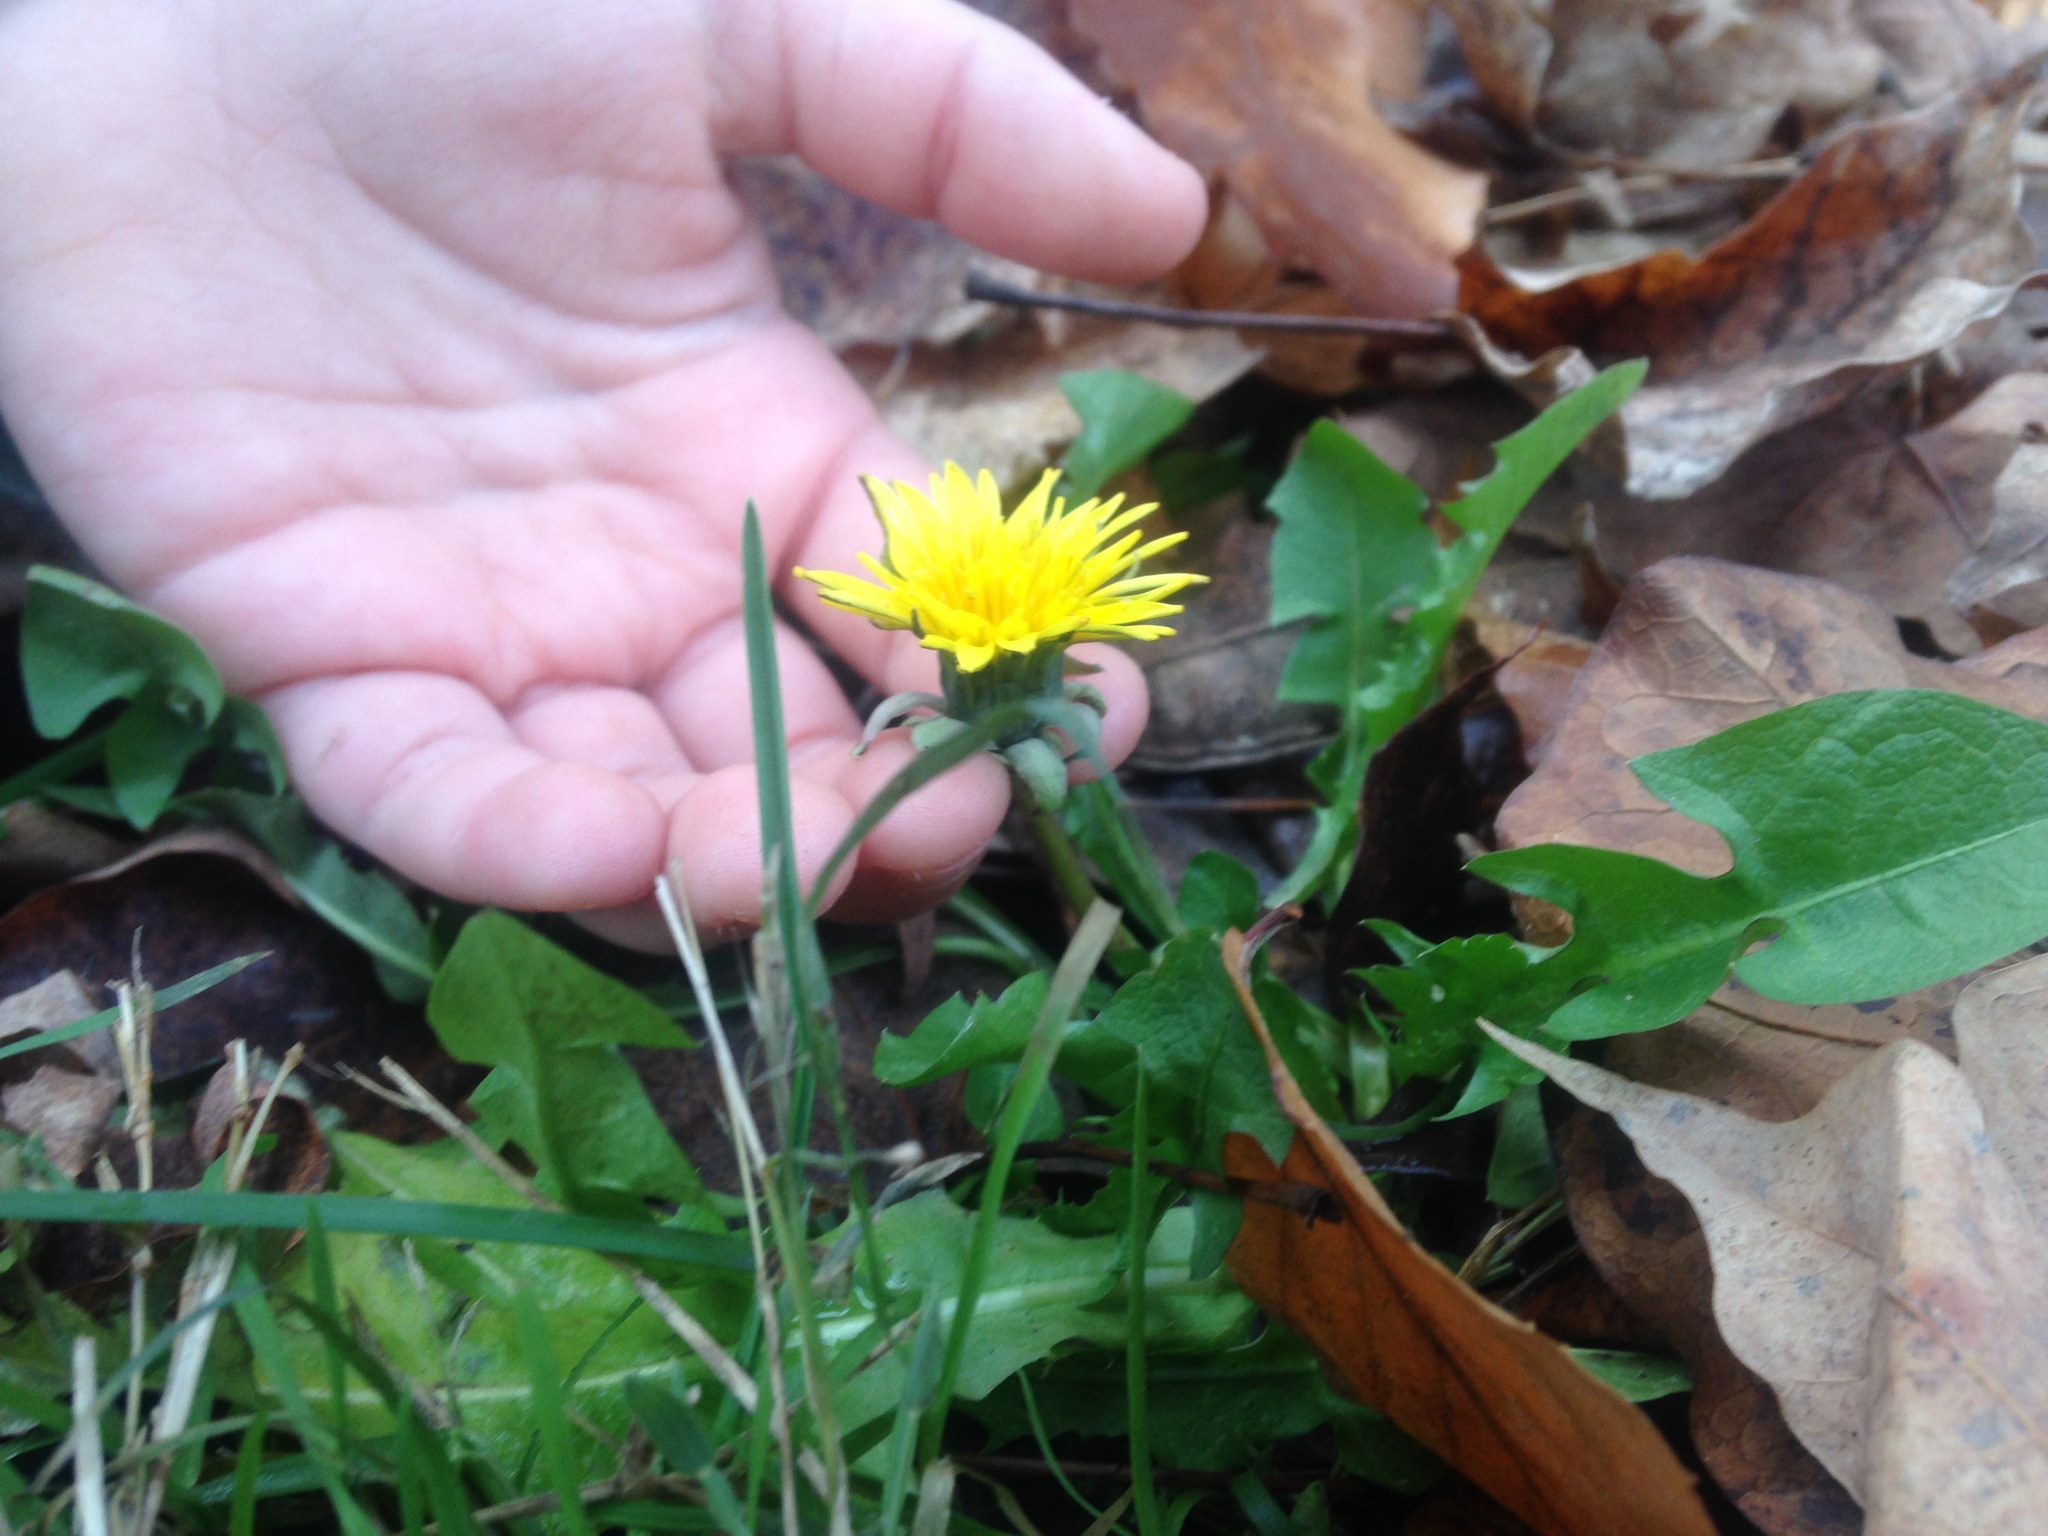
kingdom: Plantae
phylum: Tracheophyta
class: Magnoliopsida
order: Asterales
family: Asteraceae
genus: Taraxacum
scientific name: Taraxacum officinale
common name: Common dandelion
